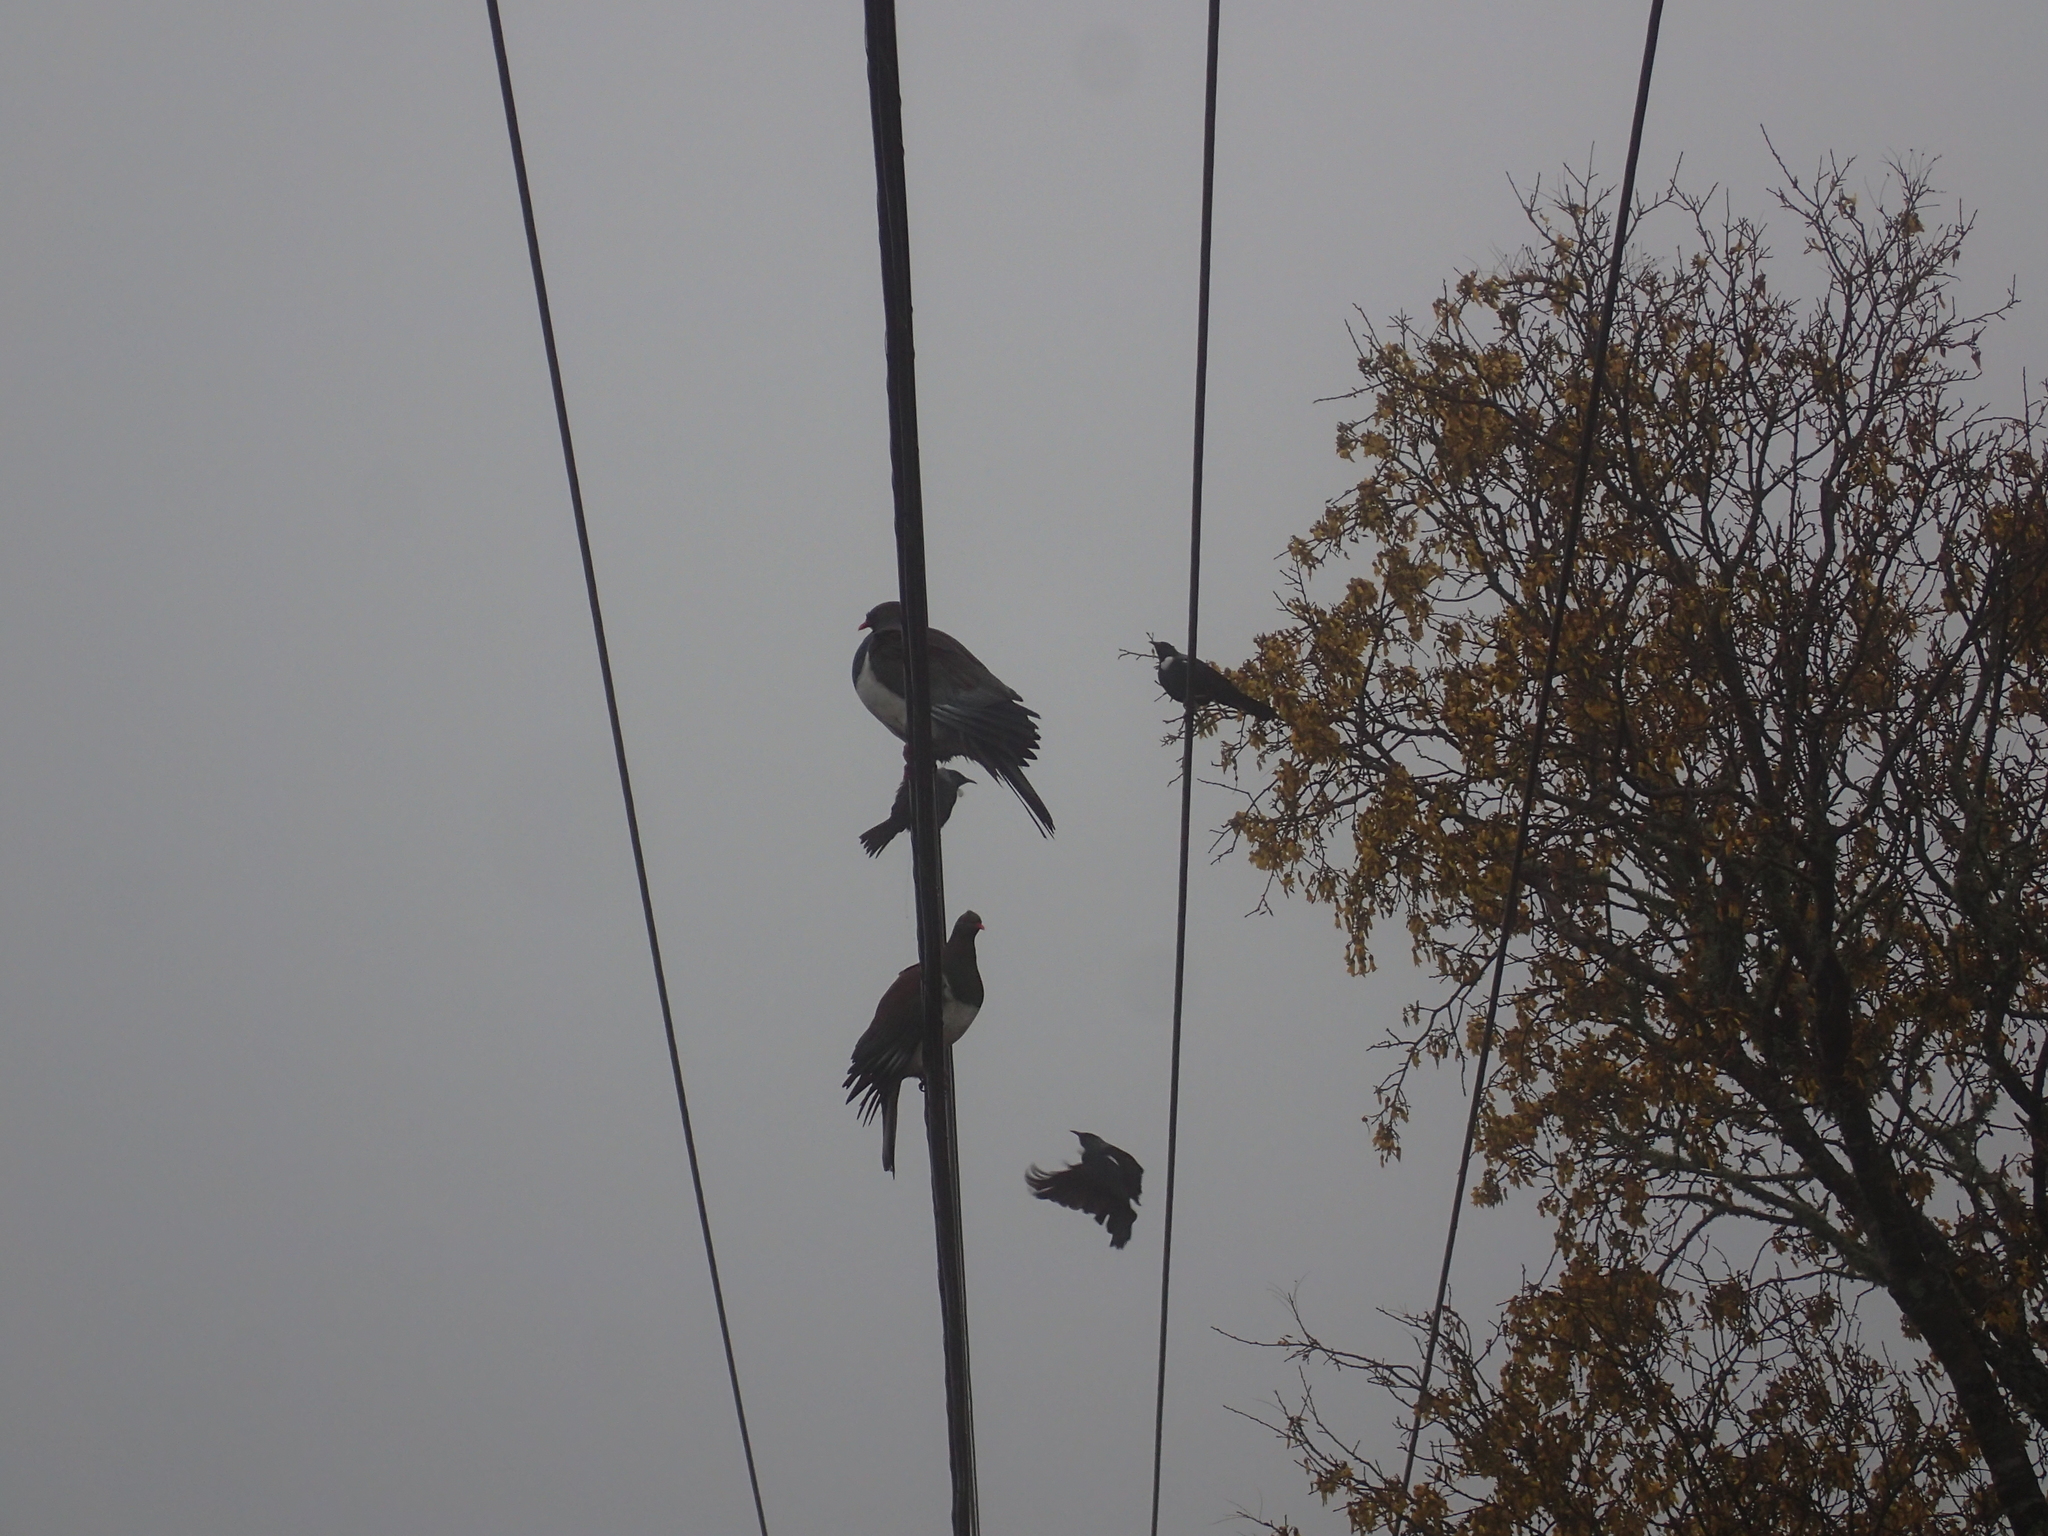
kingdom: Animalia
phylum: Chordata
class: Aves
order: Passeriformes
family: Meliphagidae
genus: Prosthemadera
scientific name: Prosthemadera novaeseelandiae
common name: Tui
